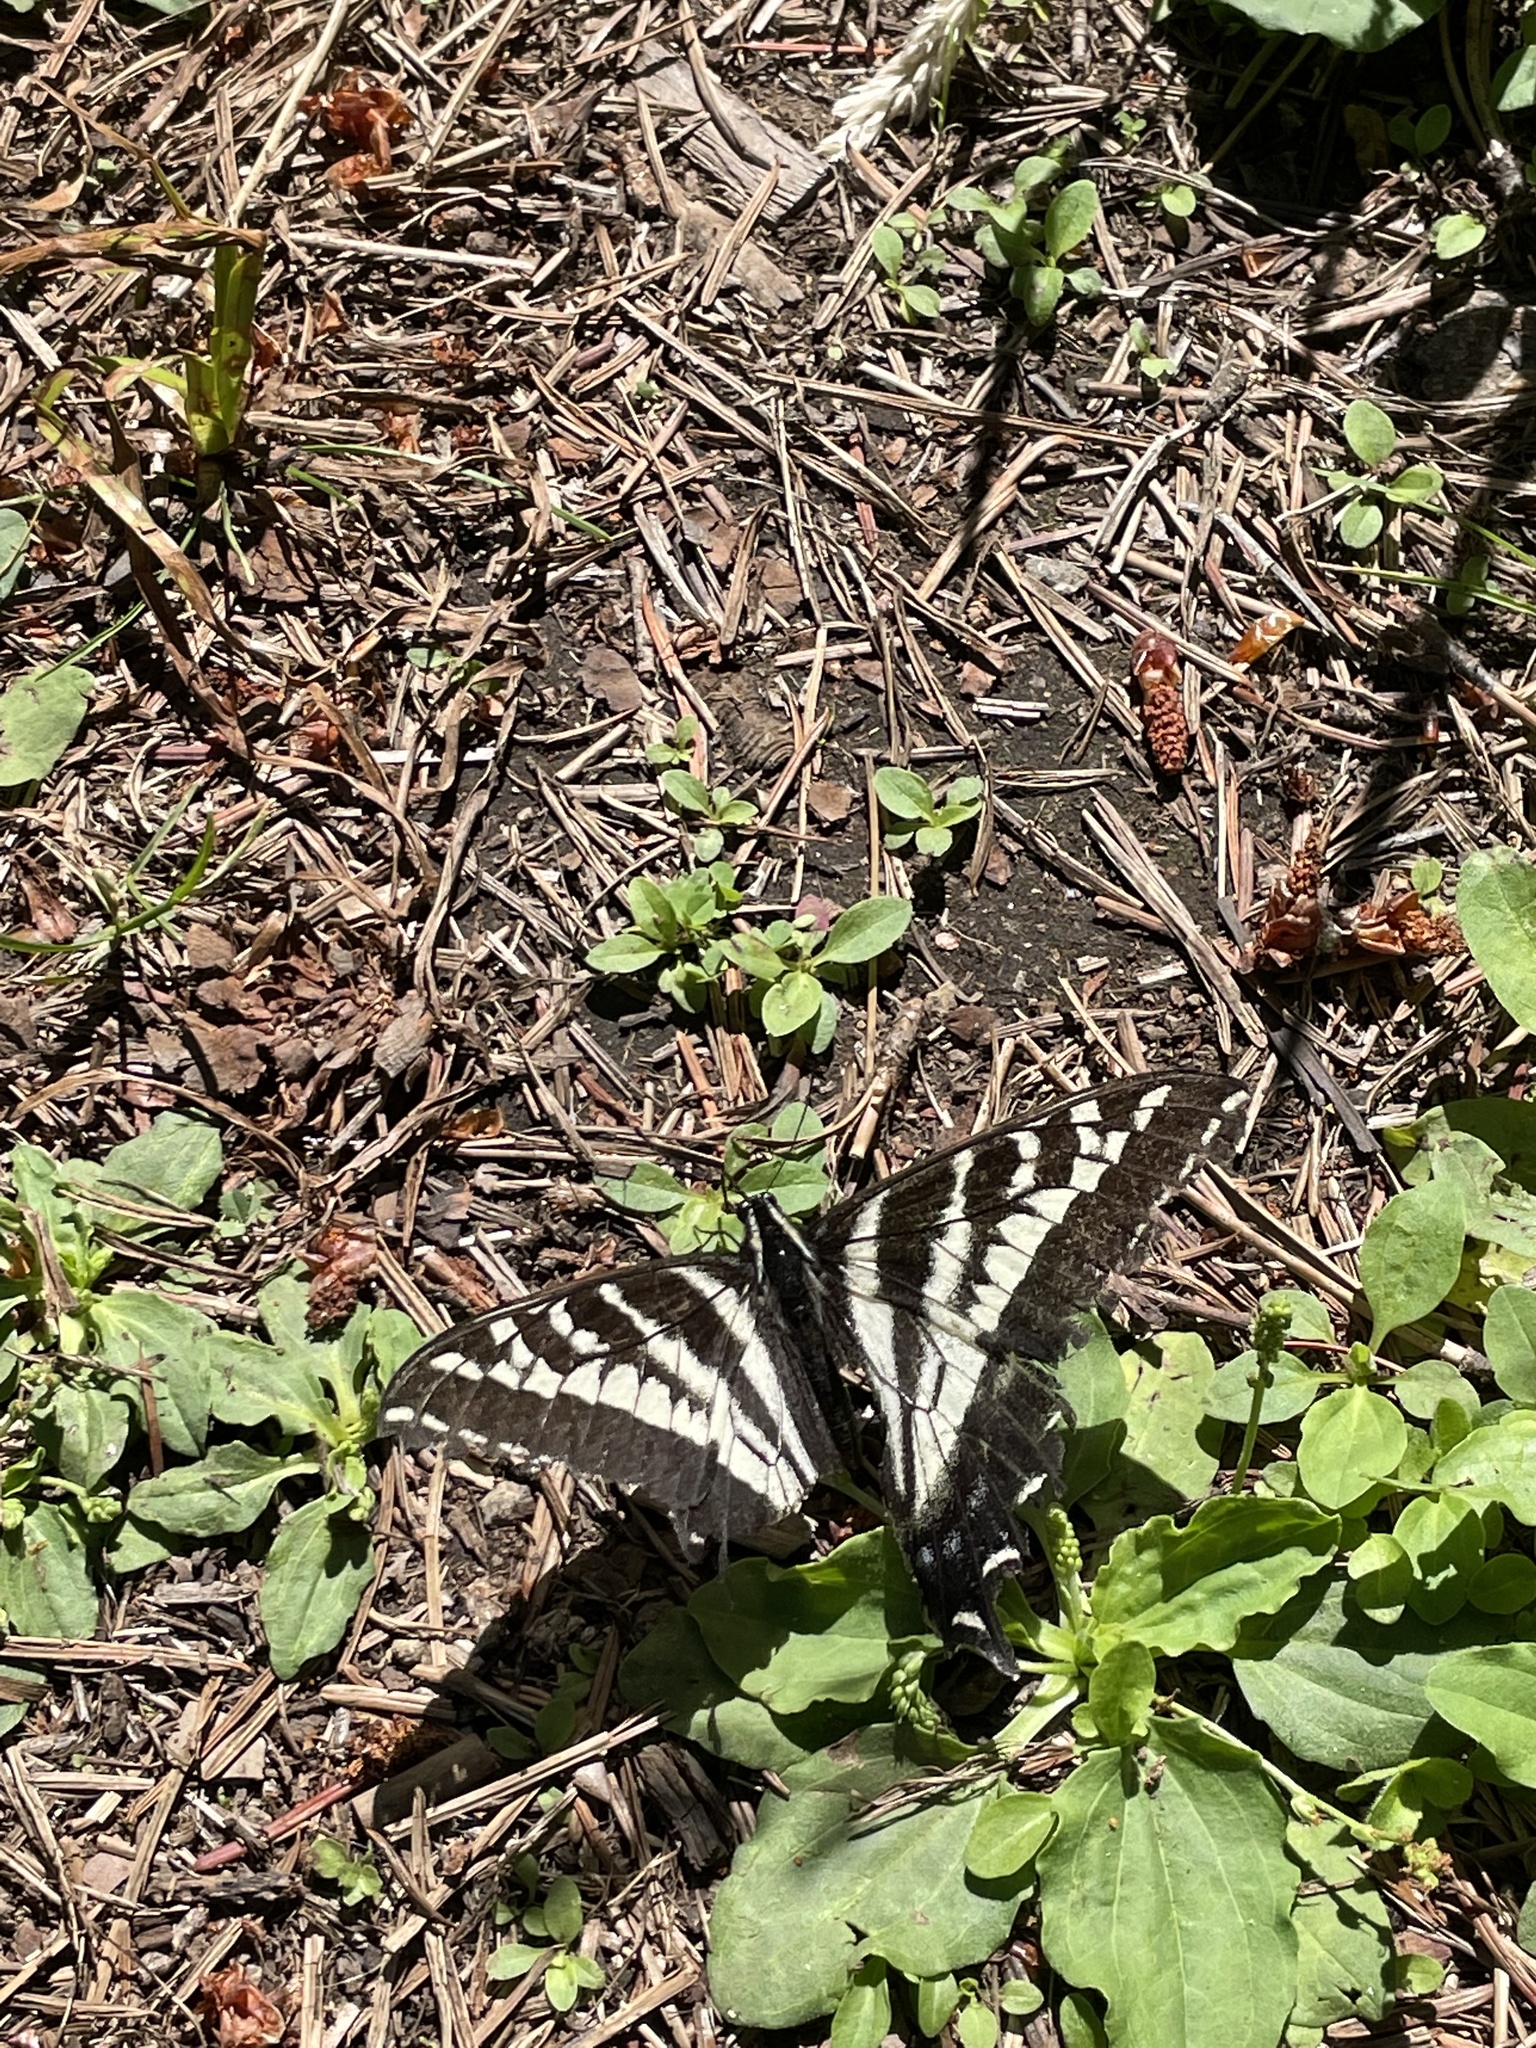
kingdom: Animalia
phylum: Arthropoda
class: Insecta
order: Lepidoptera
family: Papilionidae
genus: Papilio
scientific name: Papilio eurymedon
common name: Pale tiger swallowtail
